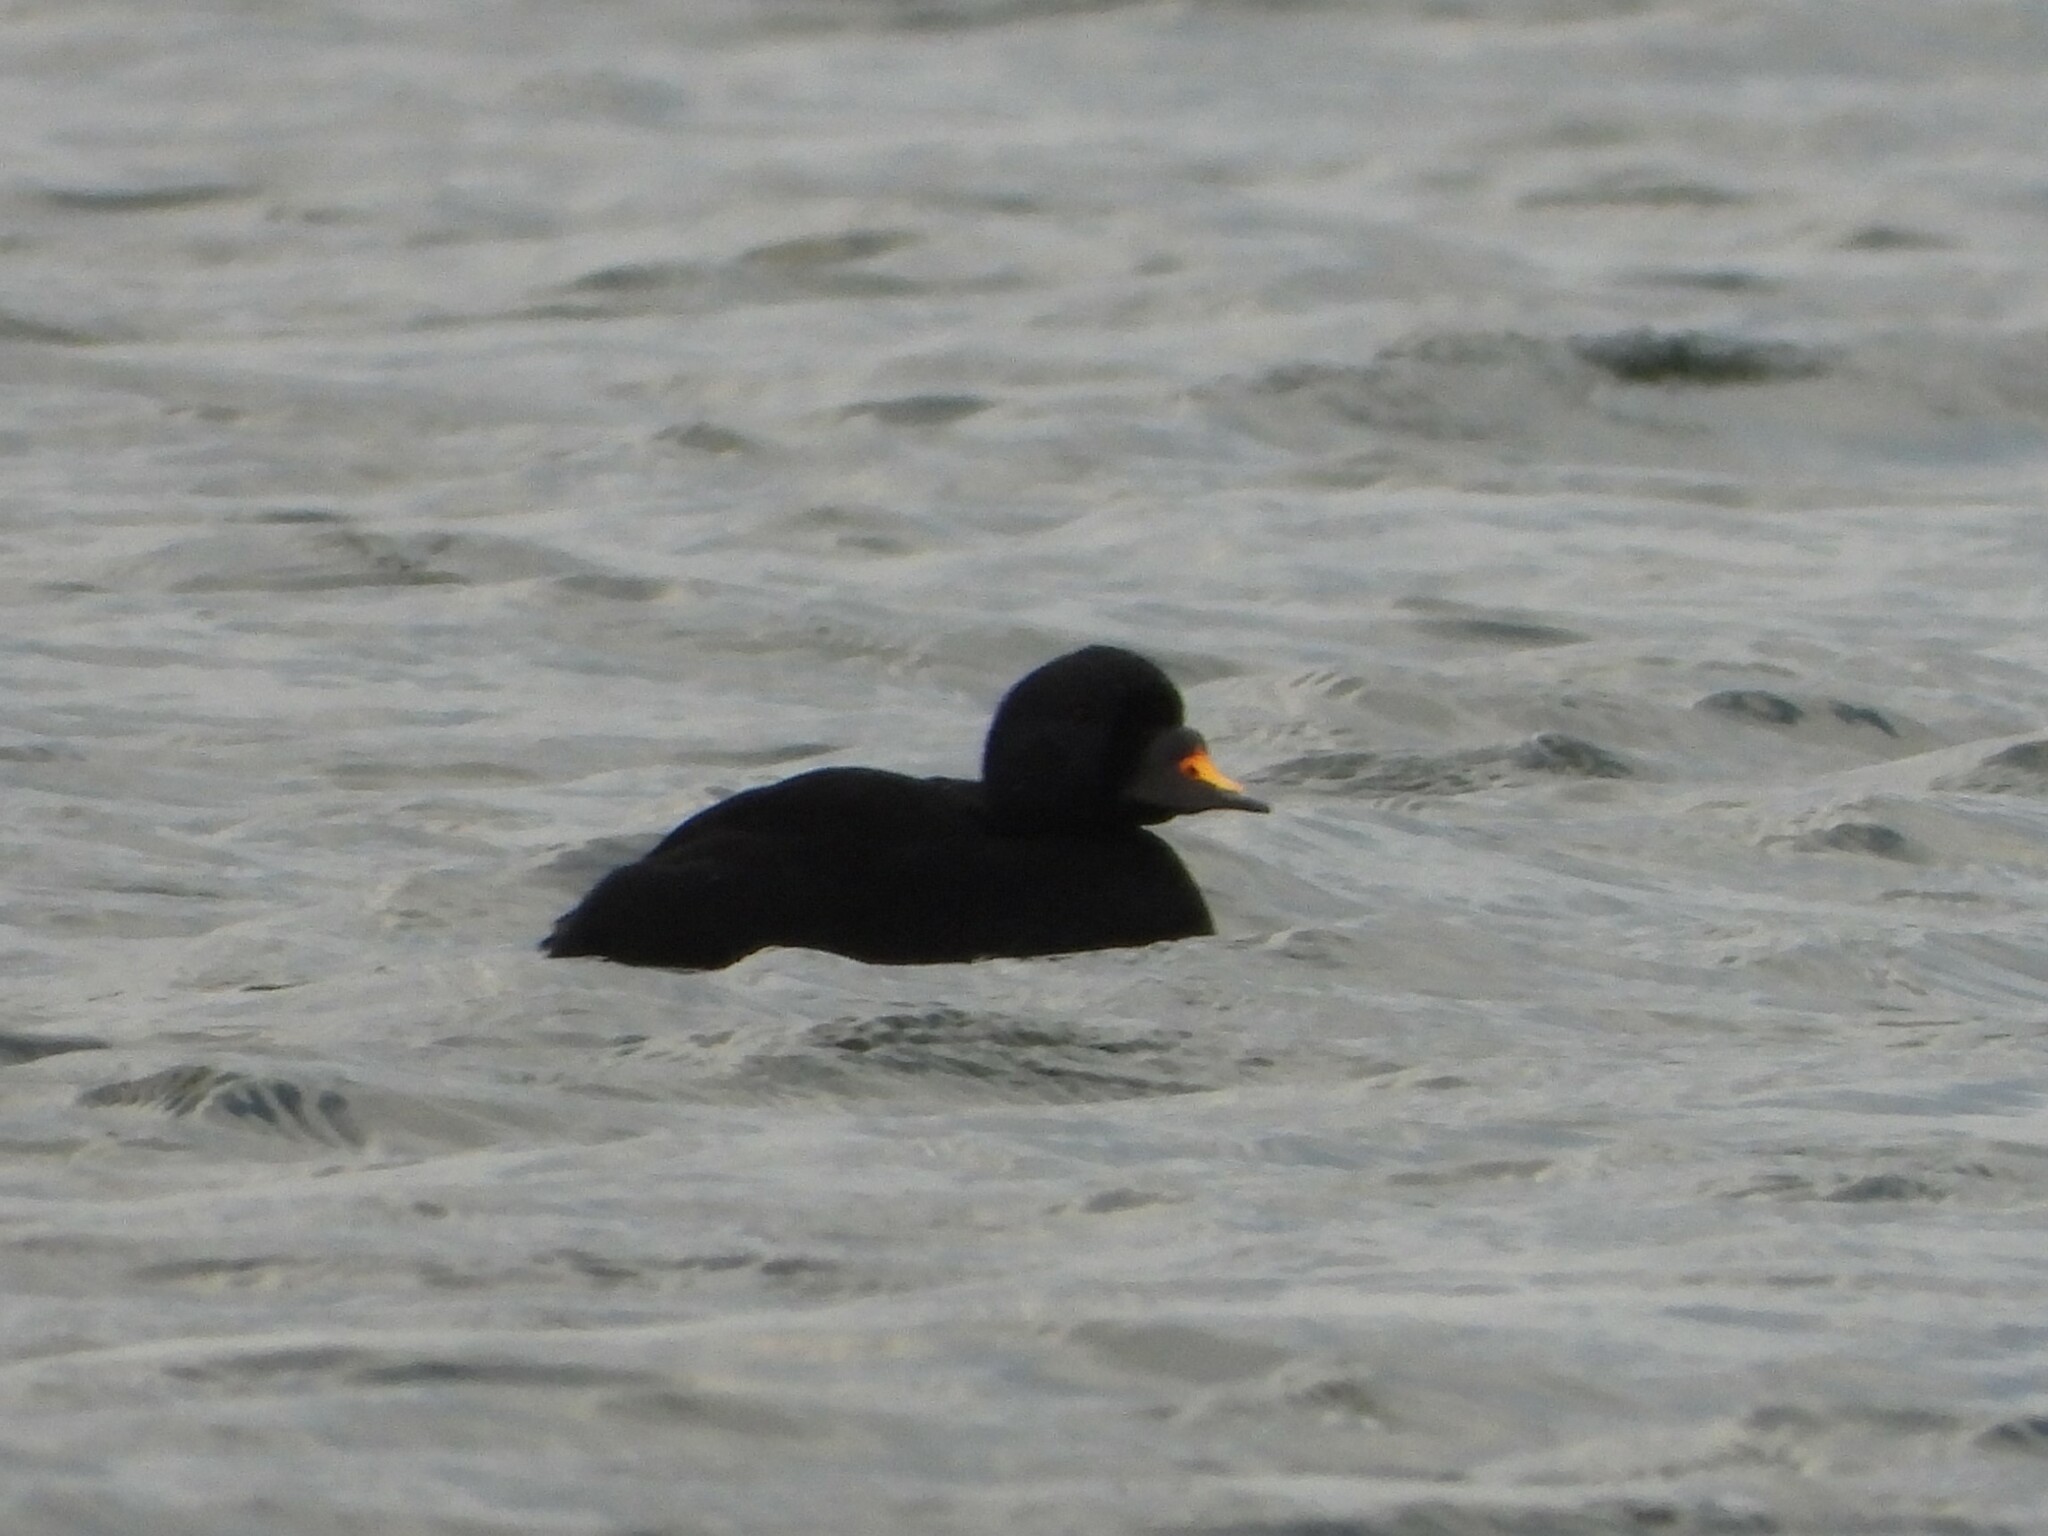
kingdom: Animalia
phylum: Chordata
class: Aves
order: Anseriformes
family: Anatidae
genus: Melanitta
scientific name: Melanitta nigra
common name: Common scoter
